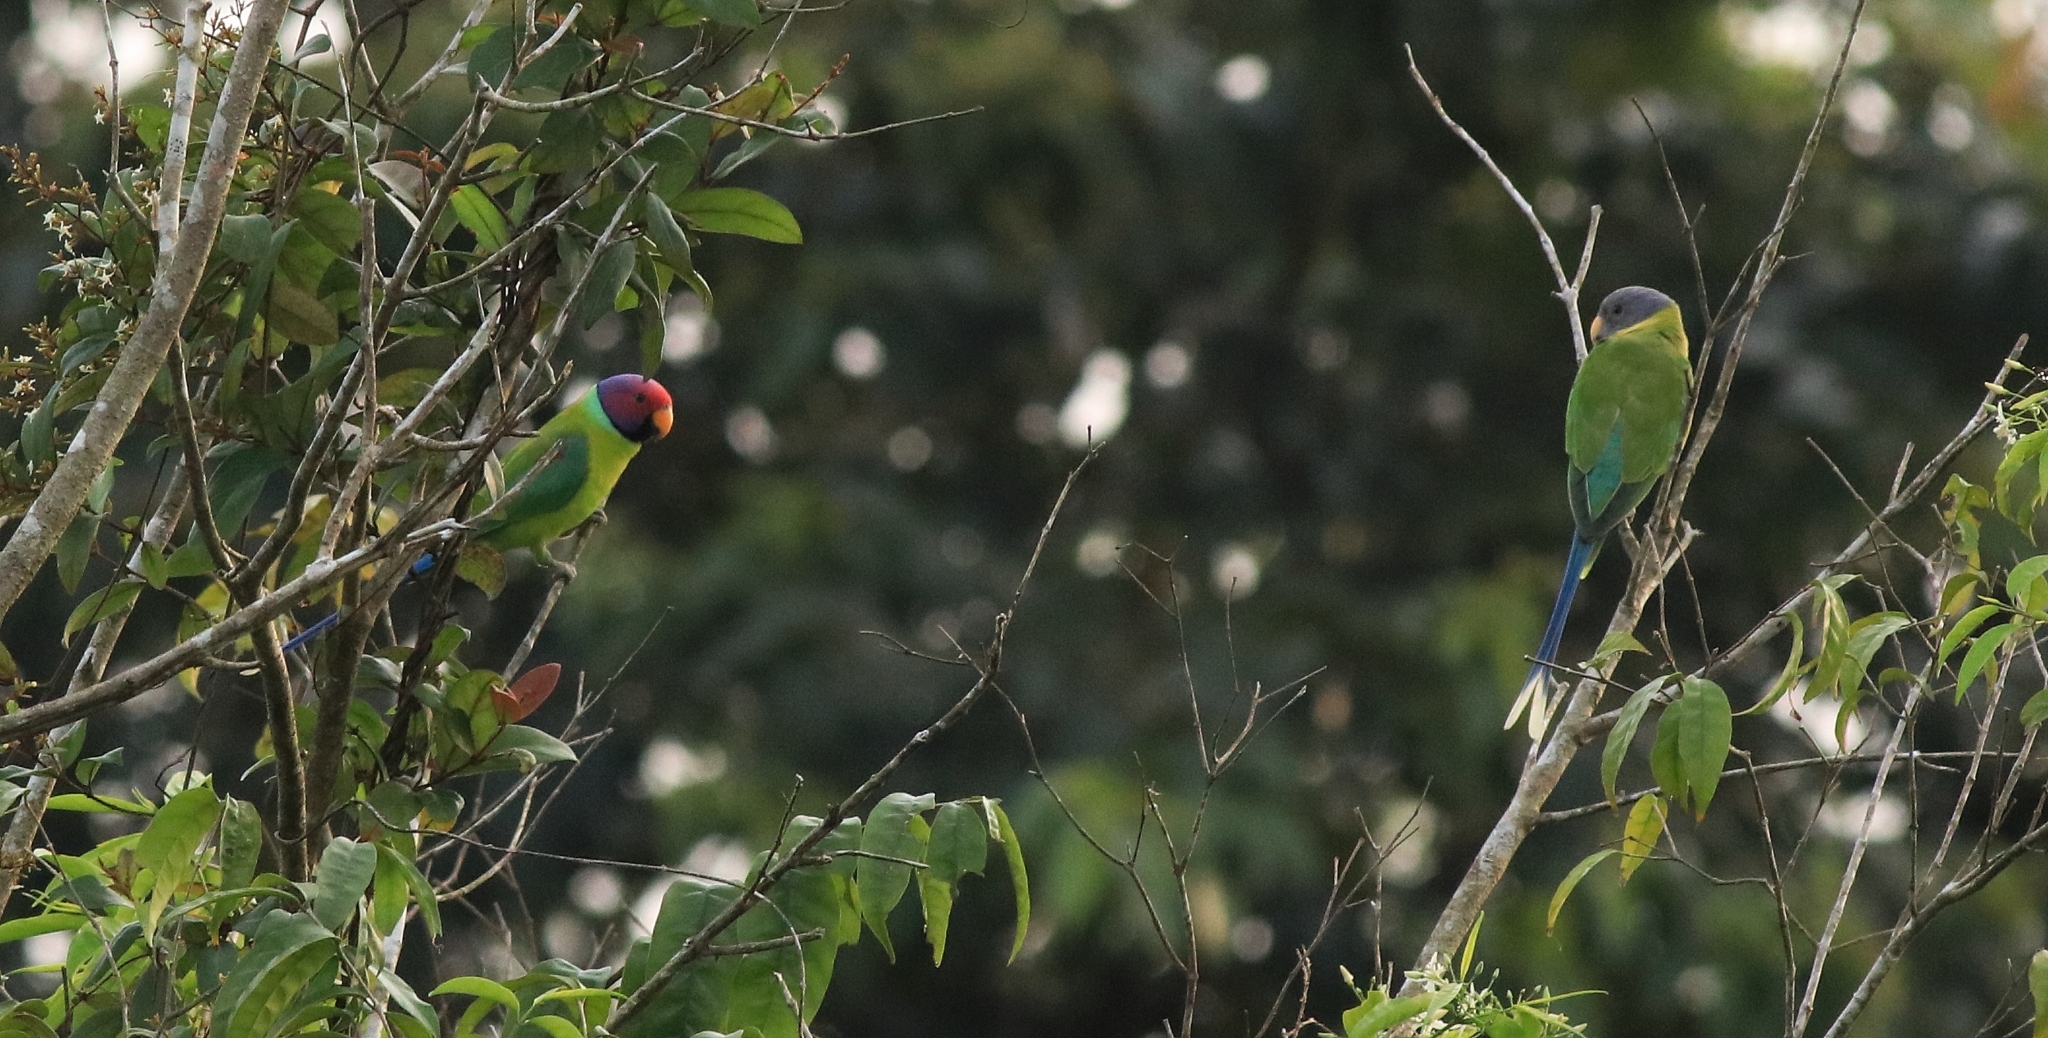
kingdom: Animalia
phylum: Chordata
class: Aves
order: Psittaciformes
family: Psittacidae
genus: Psittacula
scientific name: Psittacula cyanocephala
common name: Plum-headed parakeet
